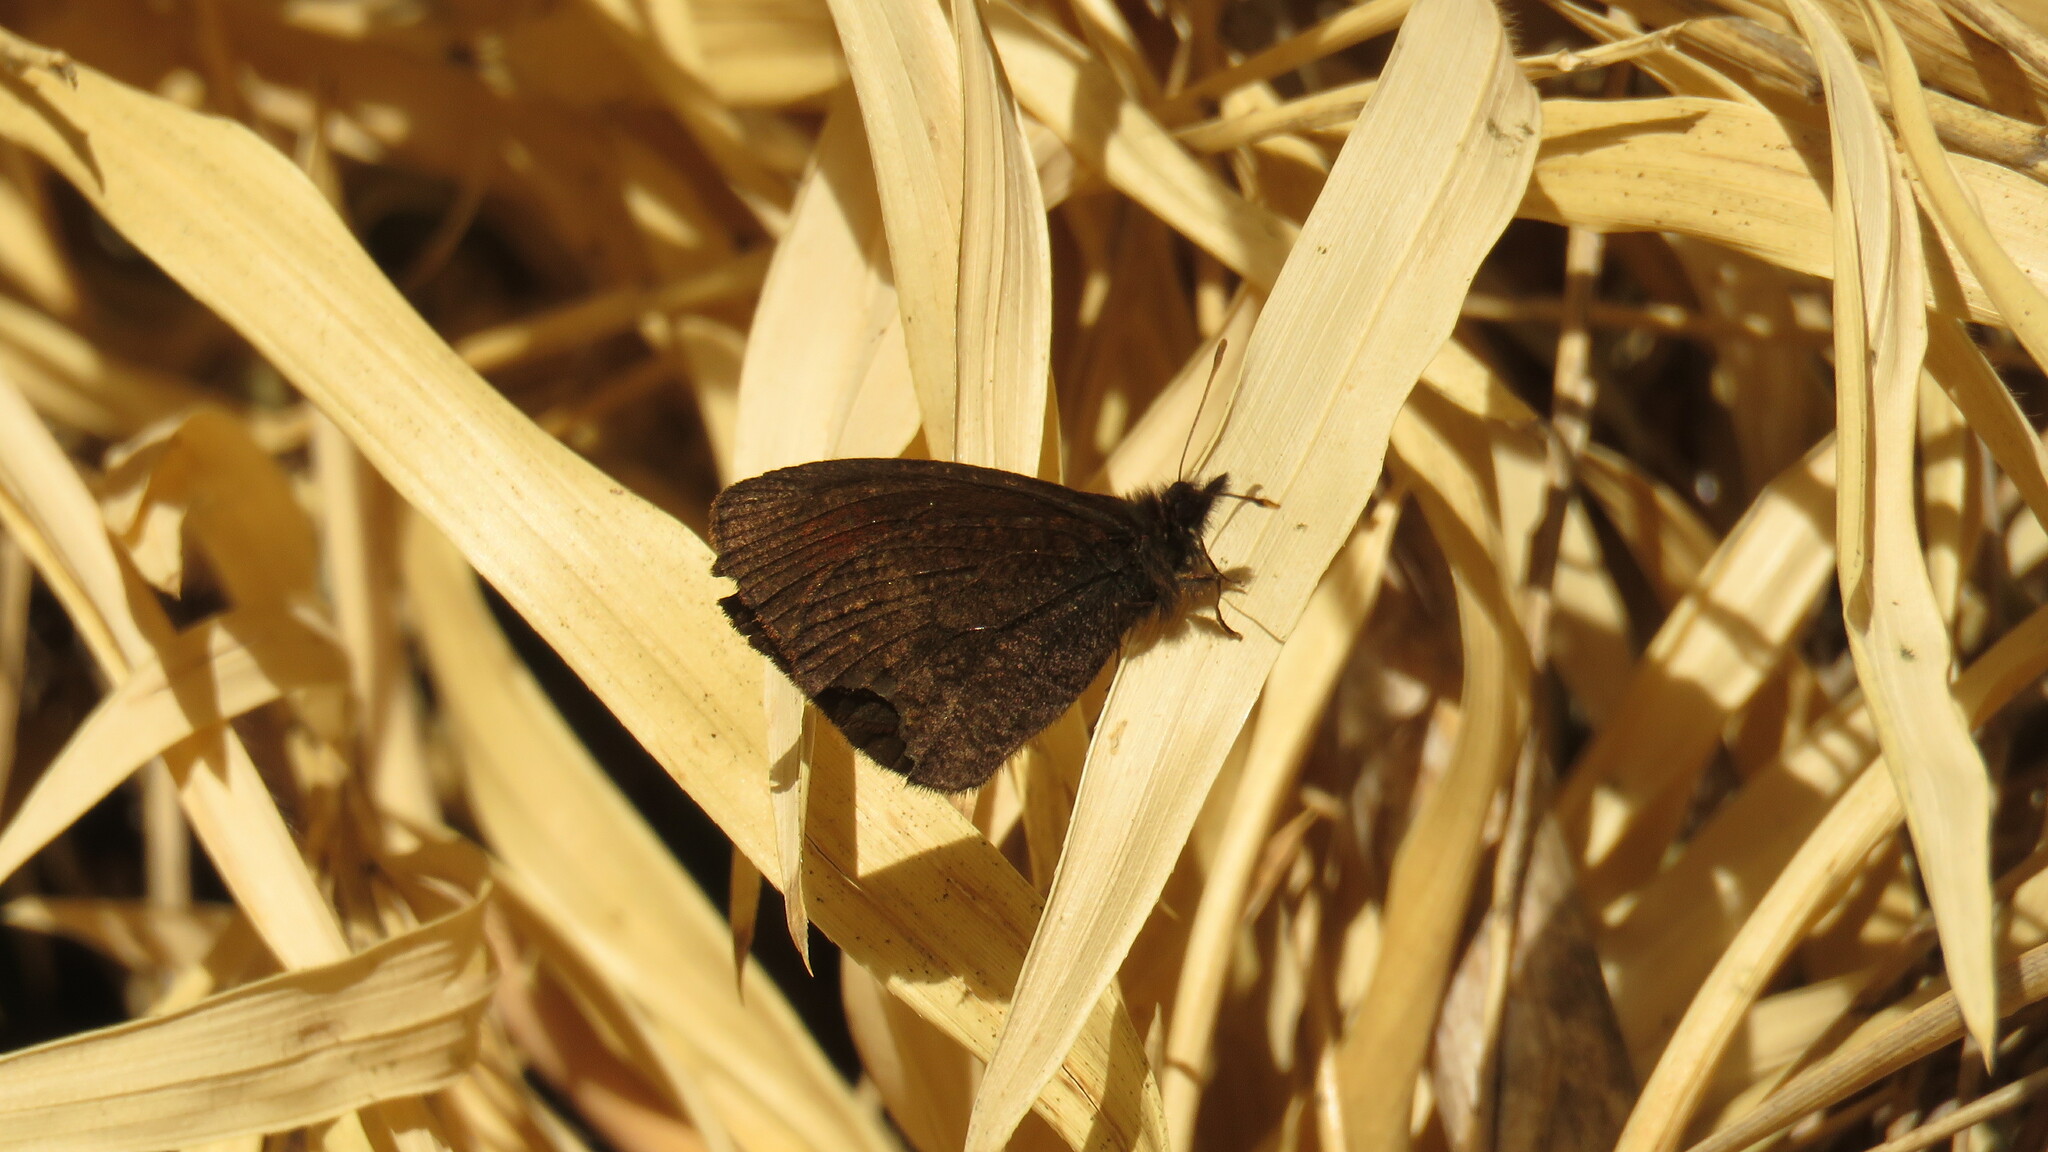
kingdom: Animalia
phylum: Arthropoda
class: Insecta
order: Lepidoptera
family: Nymphalidae
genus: Homoeonympha
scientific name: Homoeonympha schajovskoii
